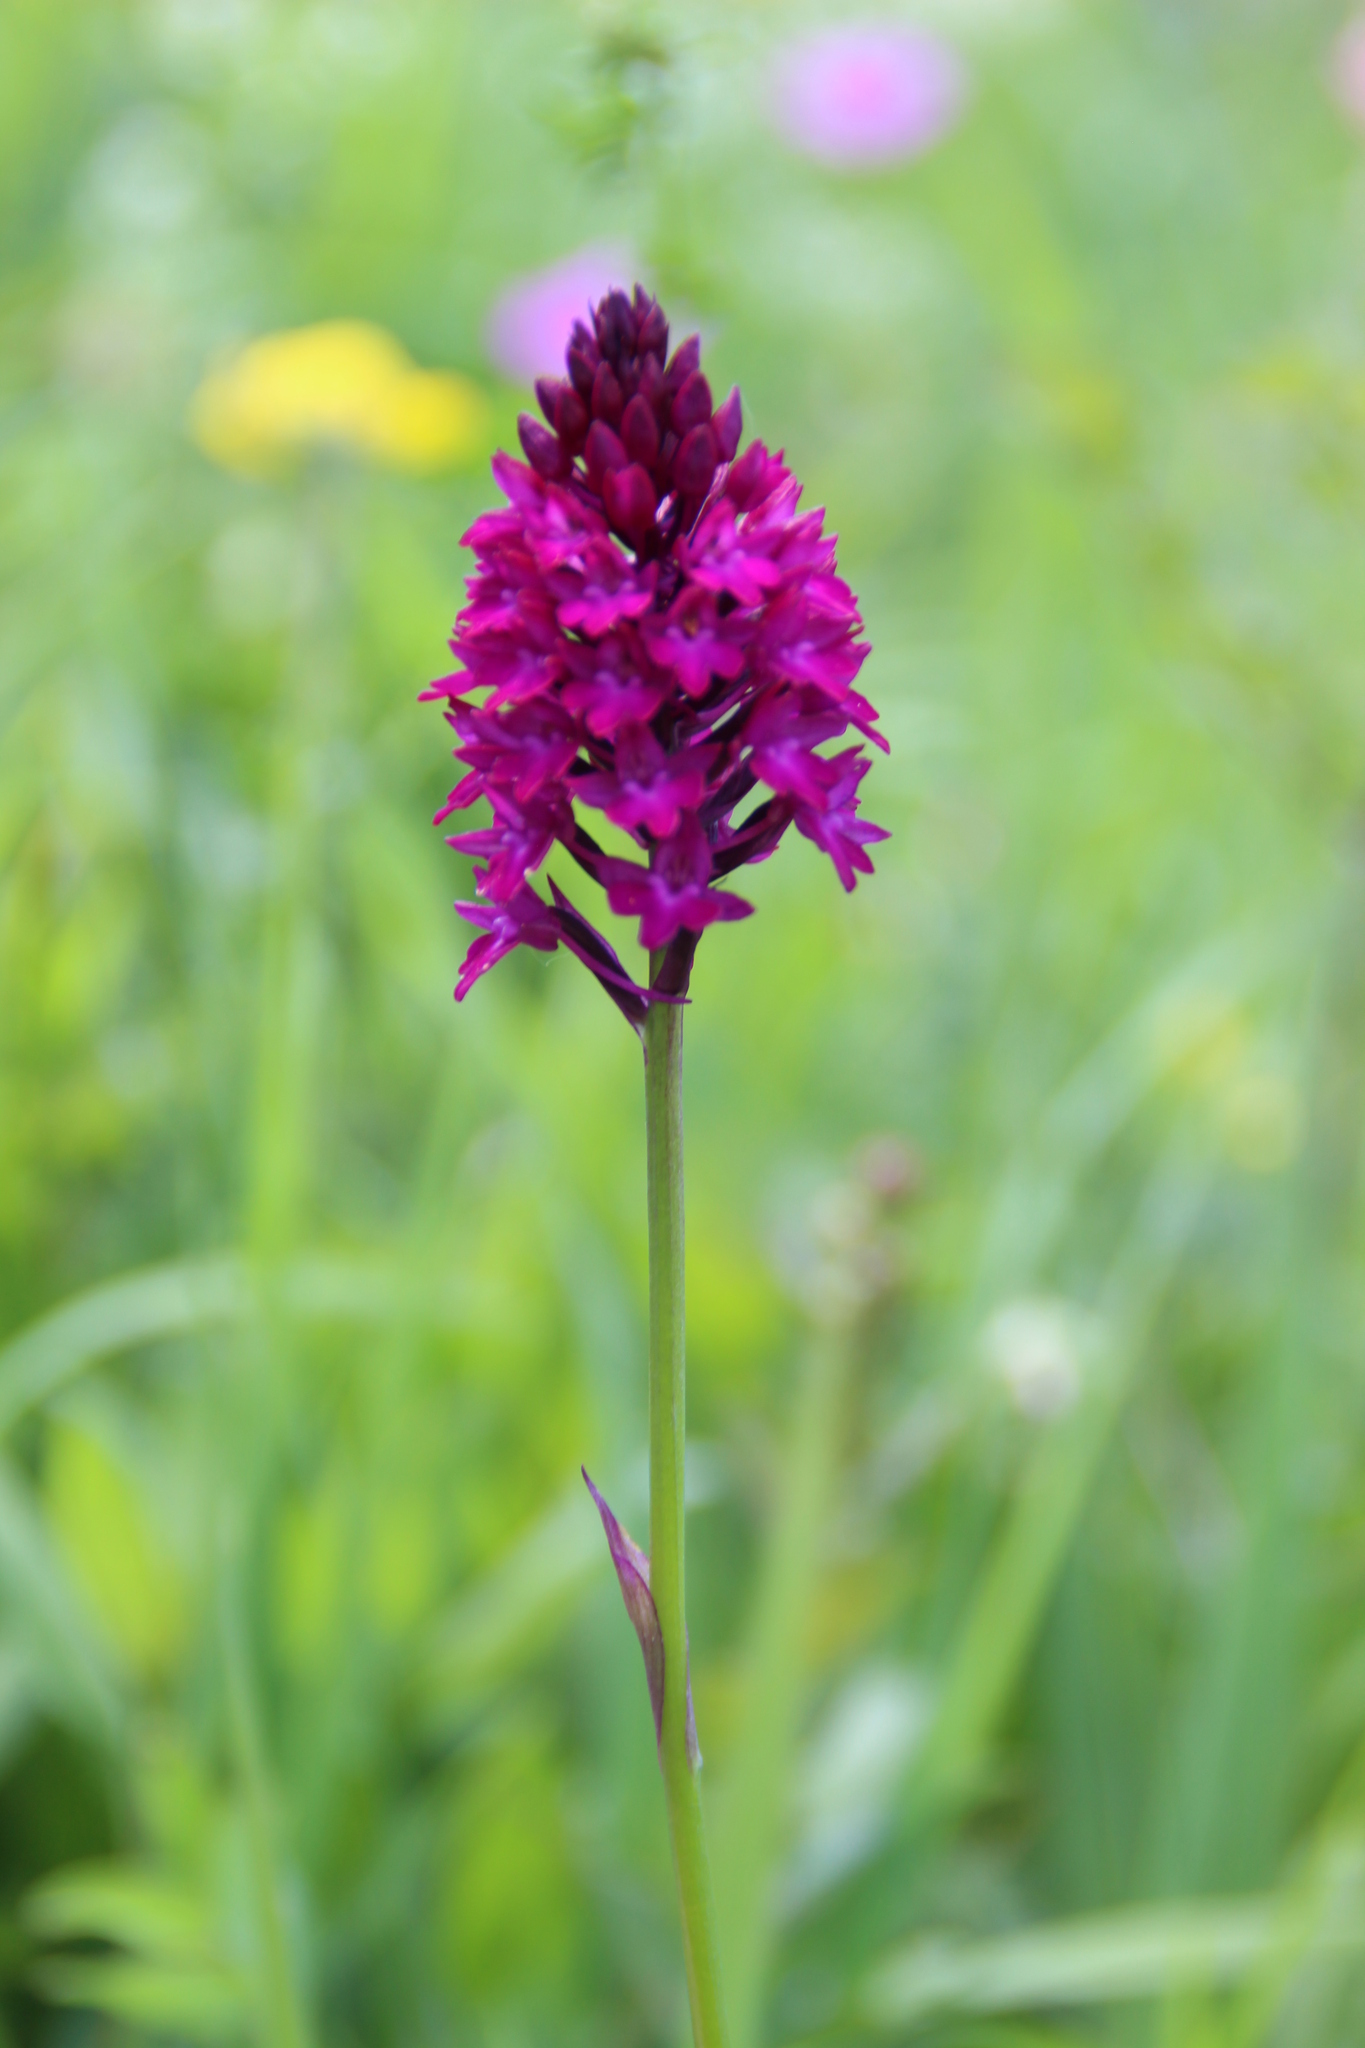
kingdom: Plantae
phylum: Tracheophyta
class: Liliopsida
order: Asparagales
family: Orchidaceae
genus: Anacamptis
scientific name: Anacamptis pyramidalis
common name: Pyramidal orchid
